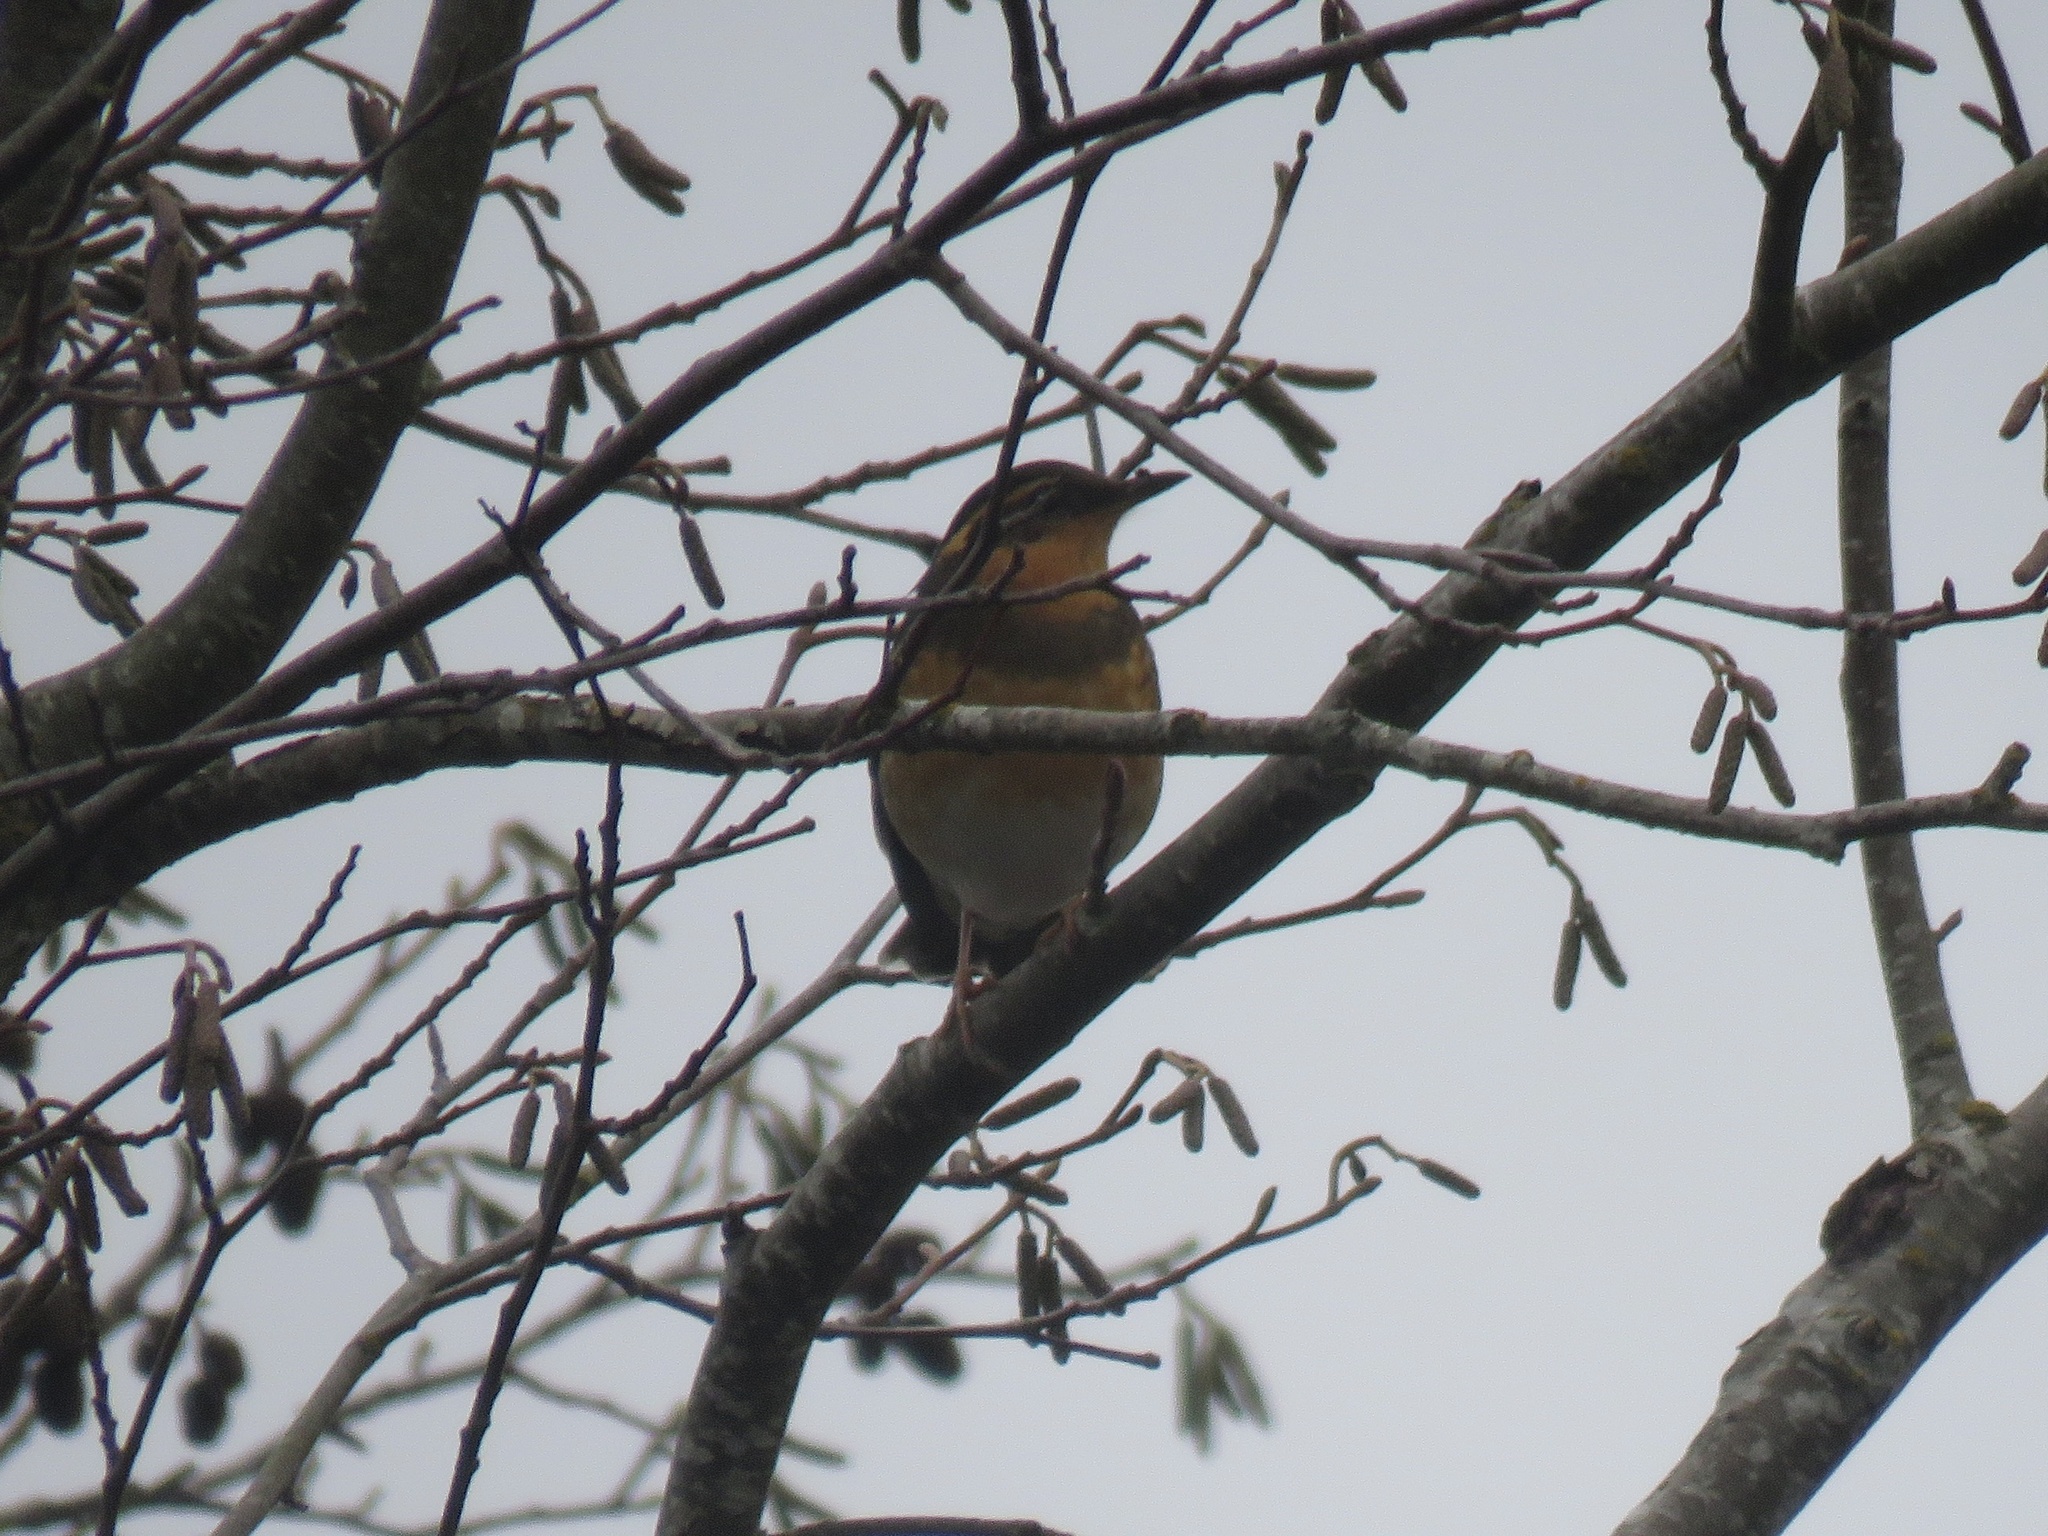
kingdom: Animalia
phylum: Chordata
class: Aves
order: Passeriformes
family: Turdidae
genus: Ixoreus
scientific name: Ixoreus naevius
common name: Varied thrush
